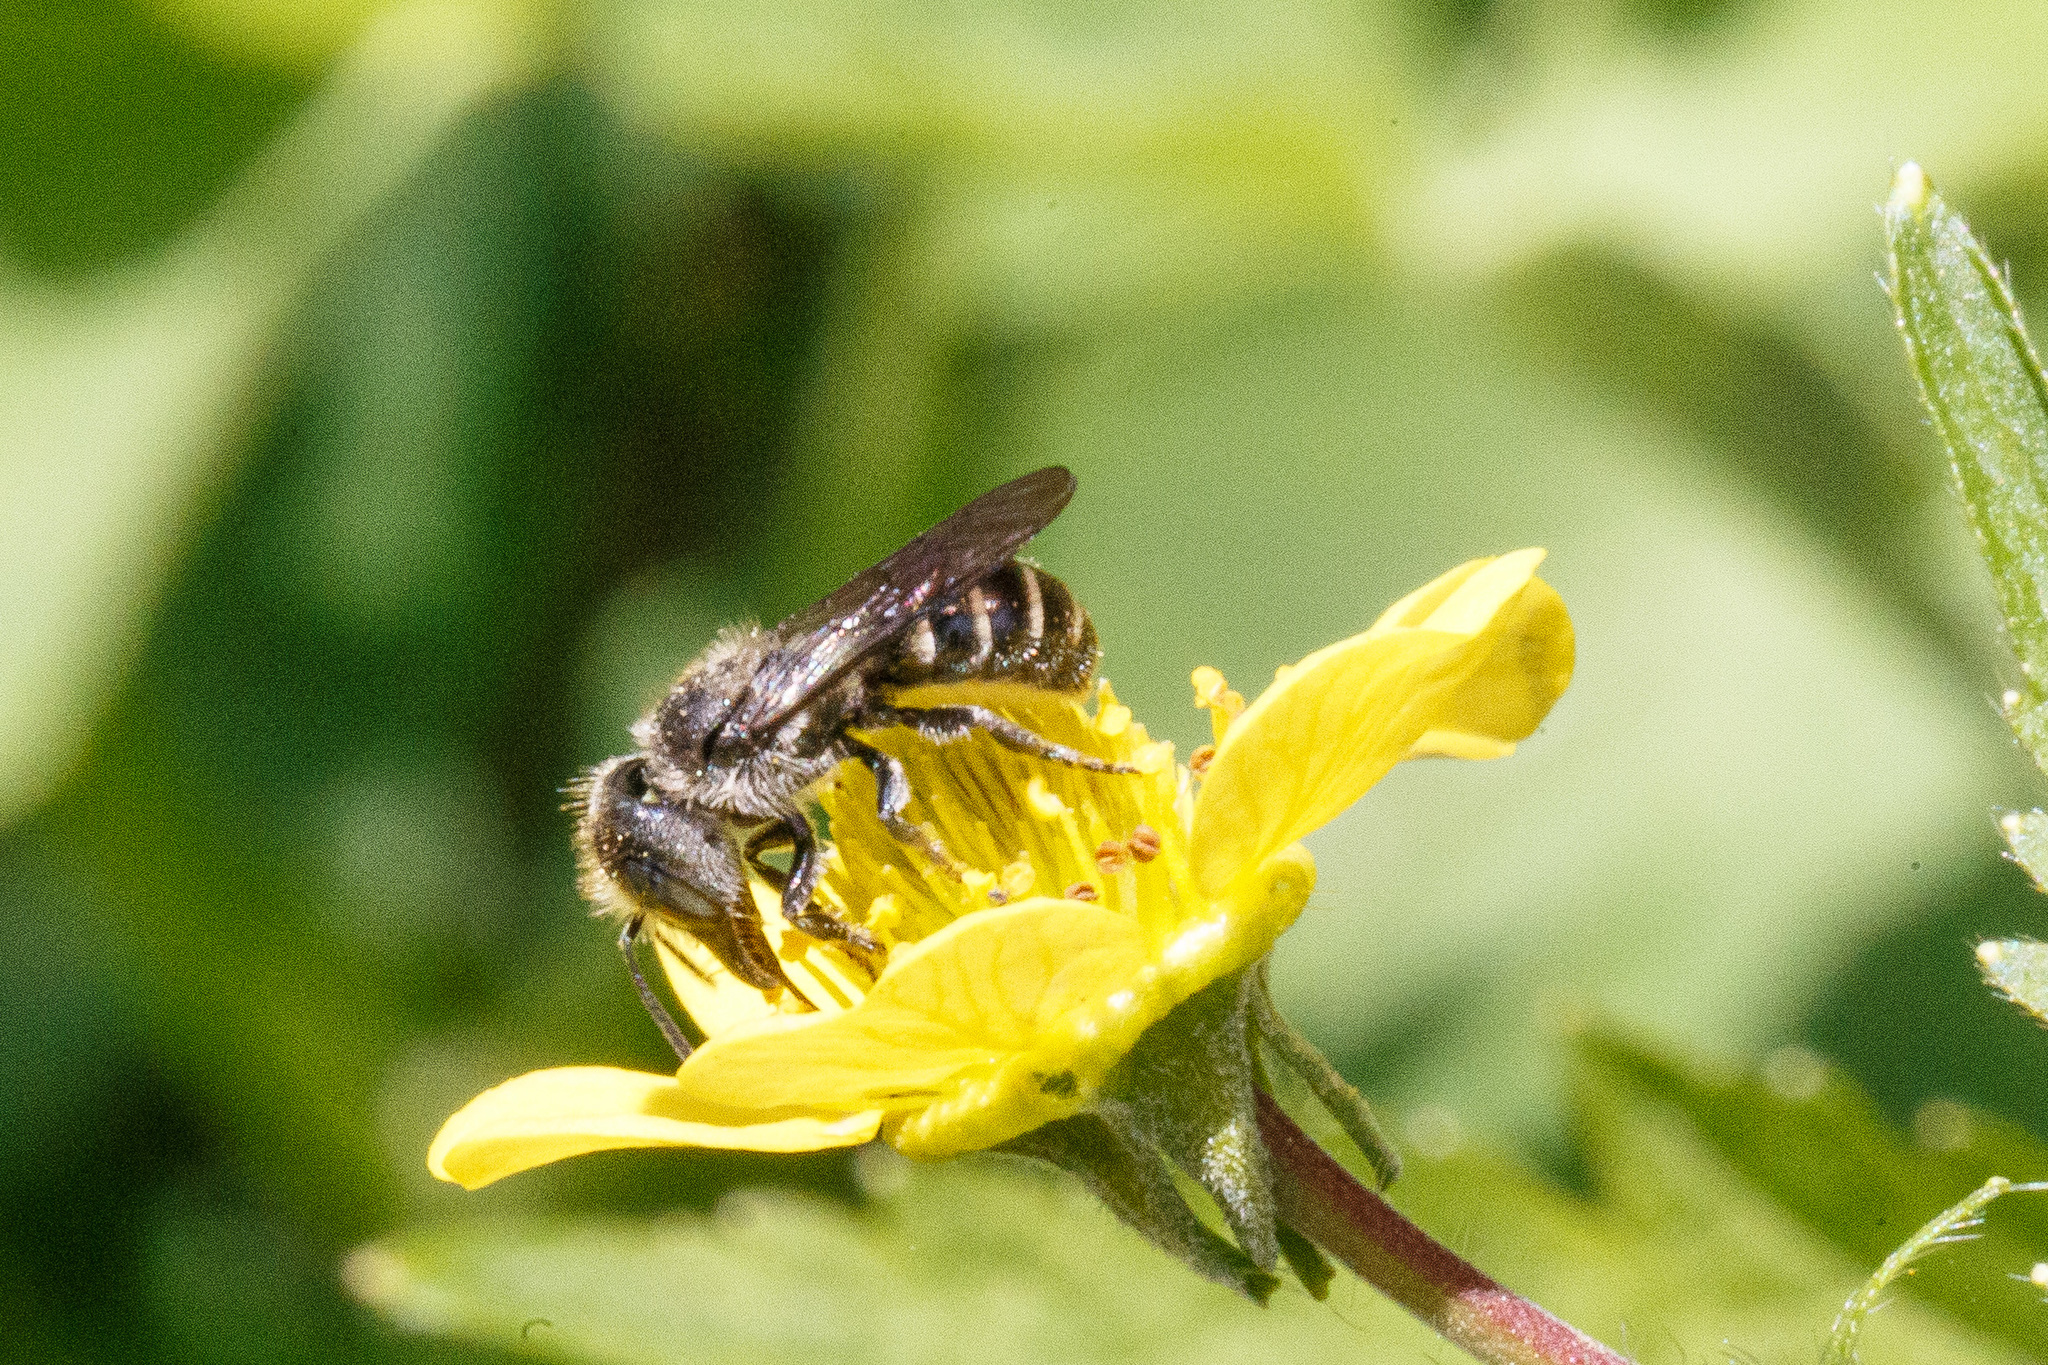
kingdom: Animalia
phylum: Arthropoda
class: Insecta
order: Hymenoptera
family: Megachilidae
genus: Protosmia
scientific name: Protosmia rubifloris
